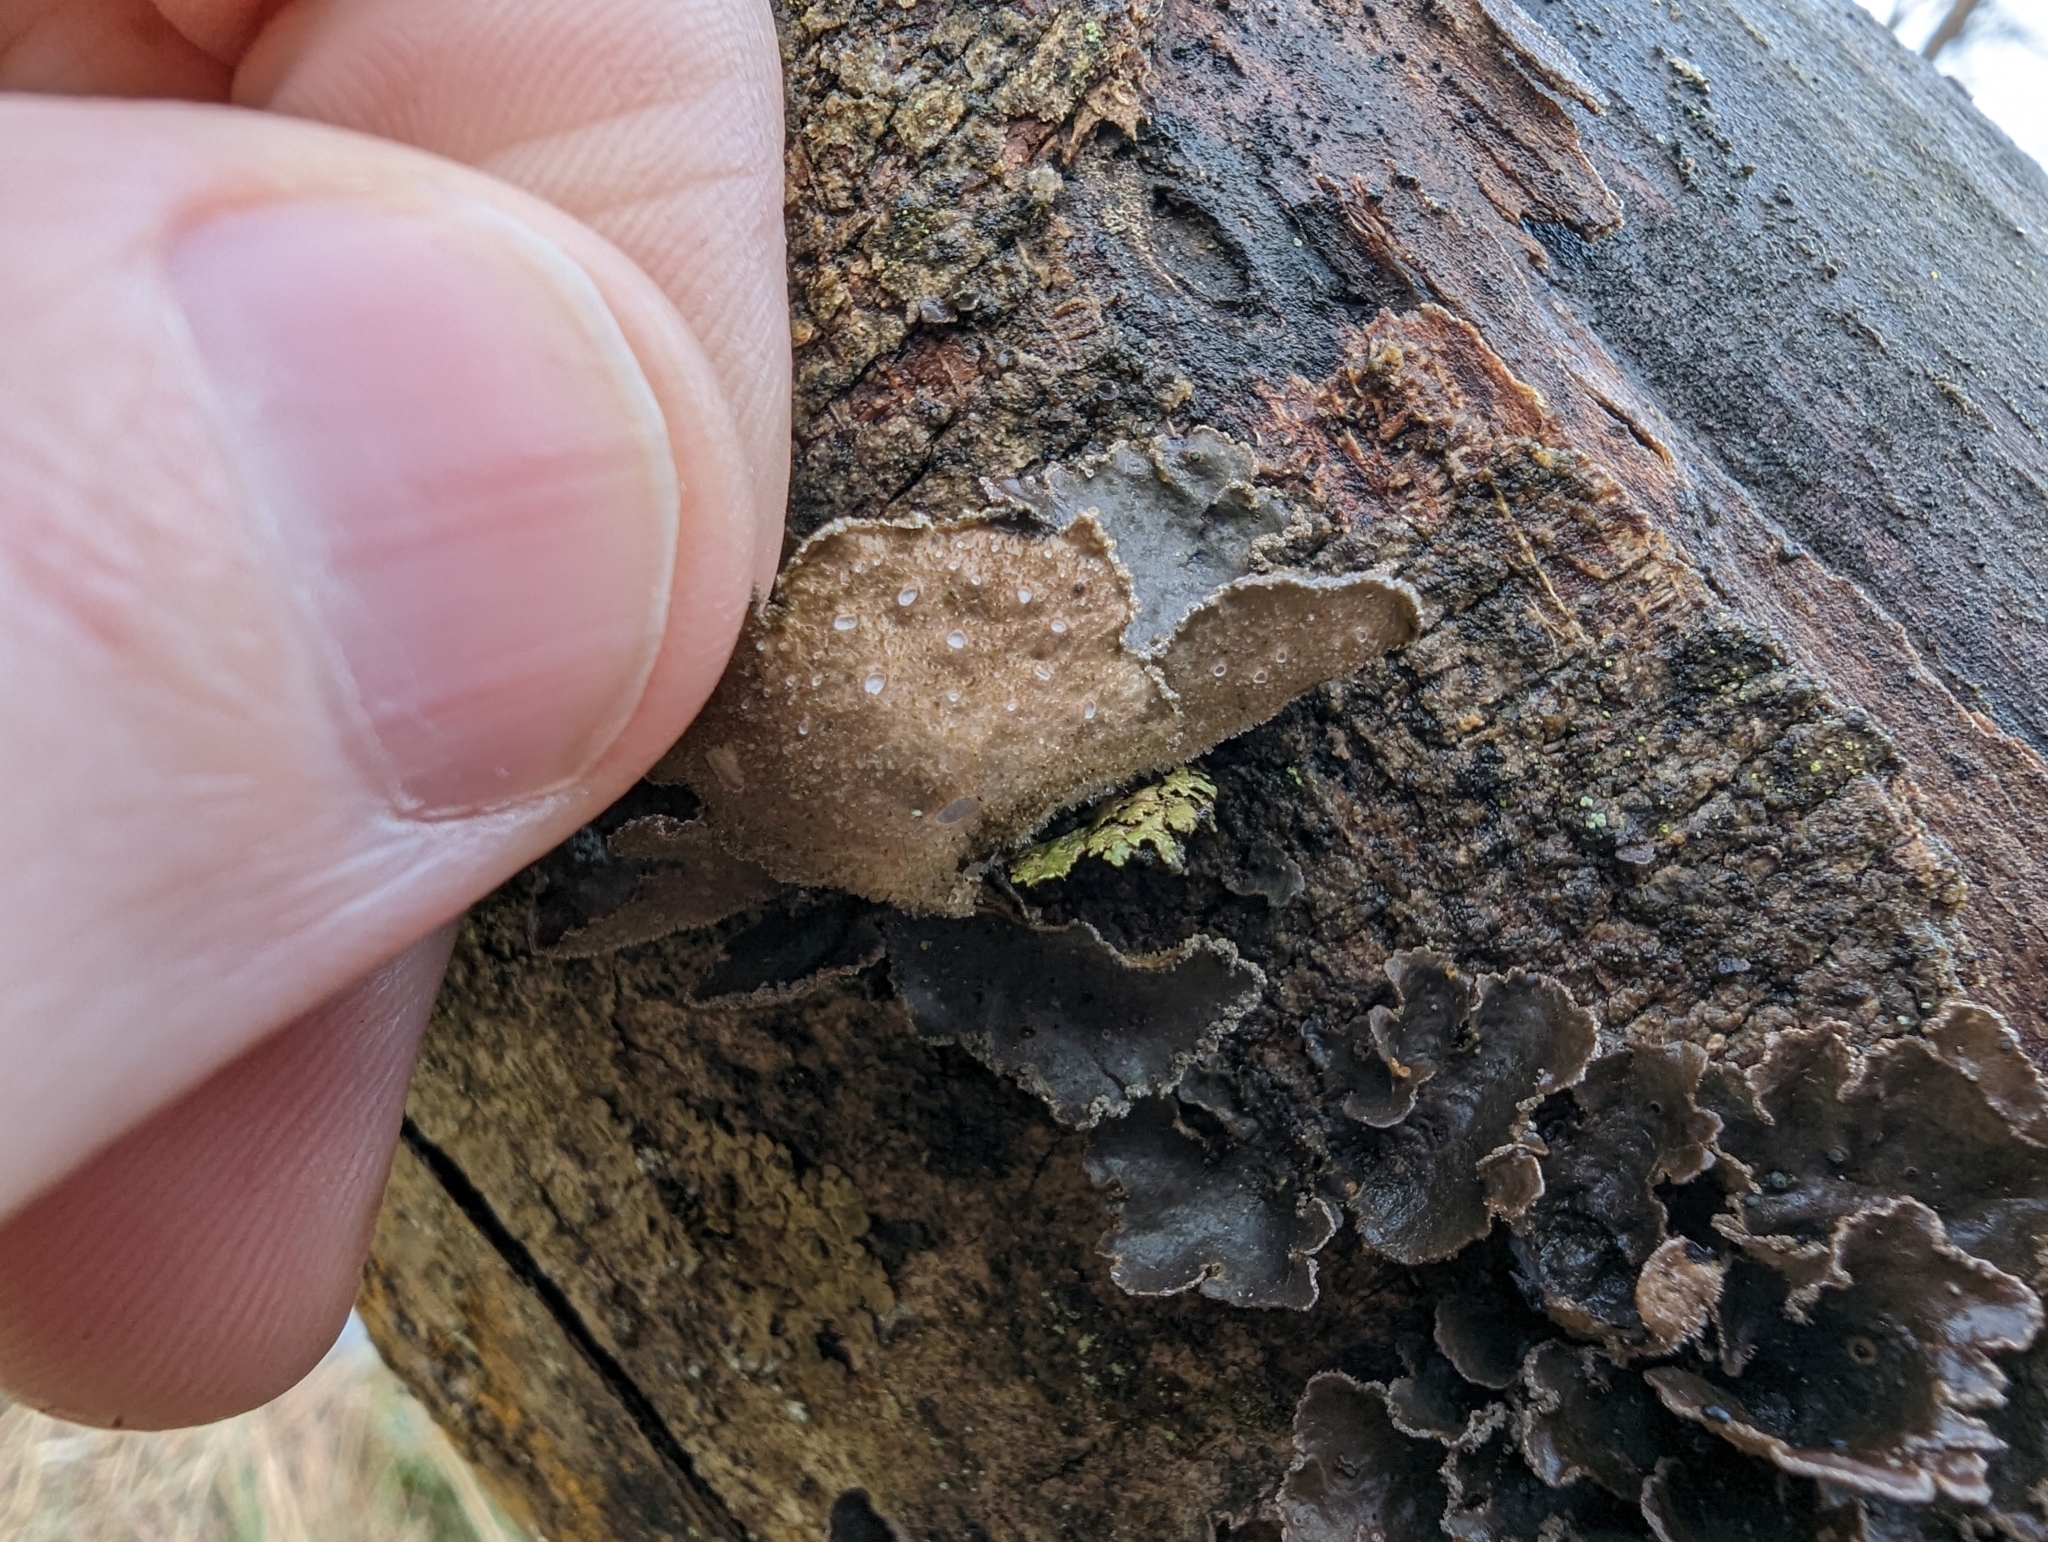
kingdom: Fungi
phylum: Ascomycota
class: Lecanoromycetes
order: Peltigerales
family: Lobariaceae
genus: Sticta
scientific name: Sticta limbata
